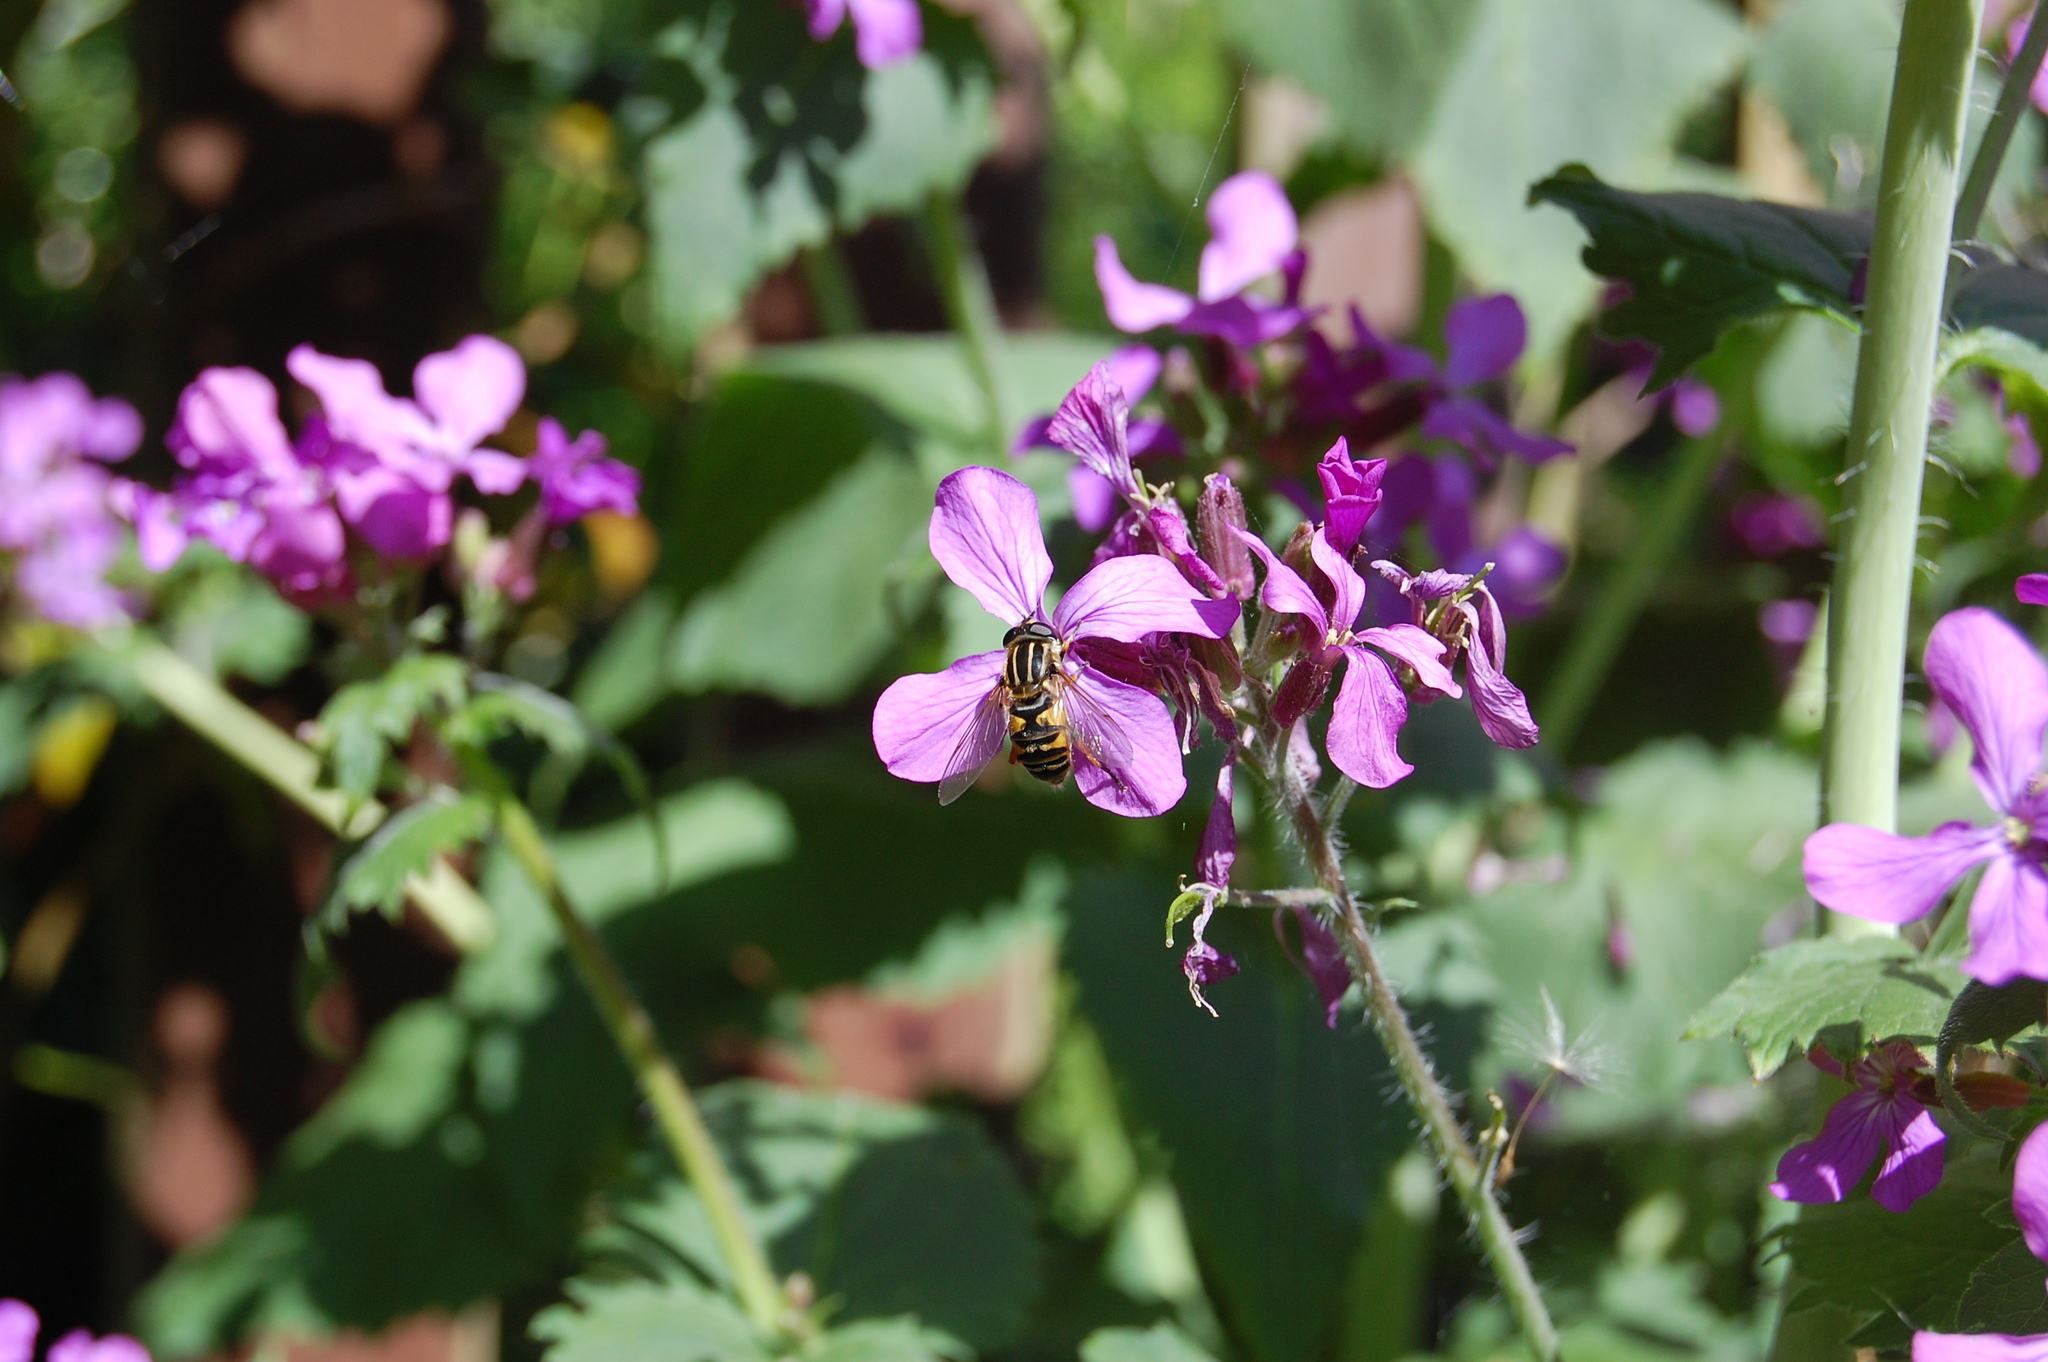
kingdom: Animalia
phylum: Arthropoda
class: Insecta
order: Diptera
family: Syrphidae
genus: Helophilus
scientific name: Helophilus pendulus
